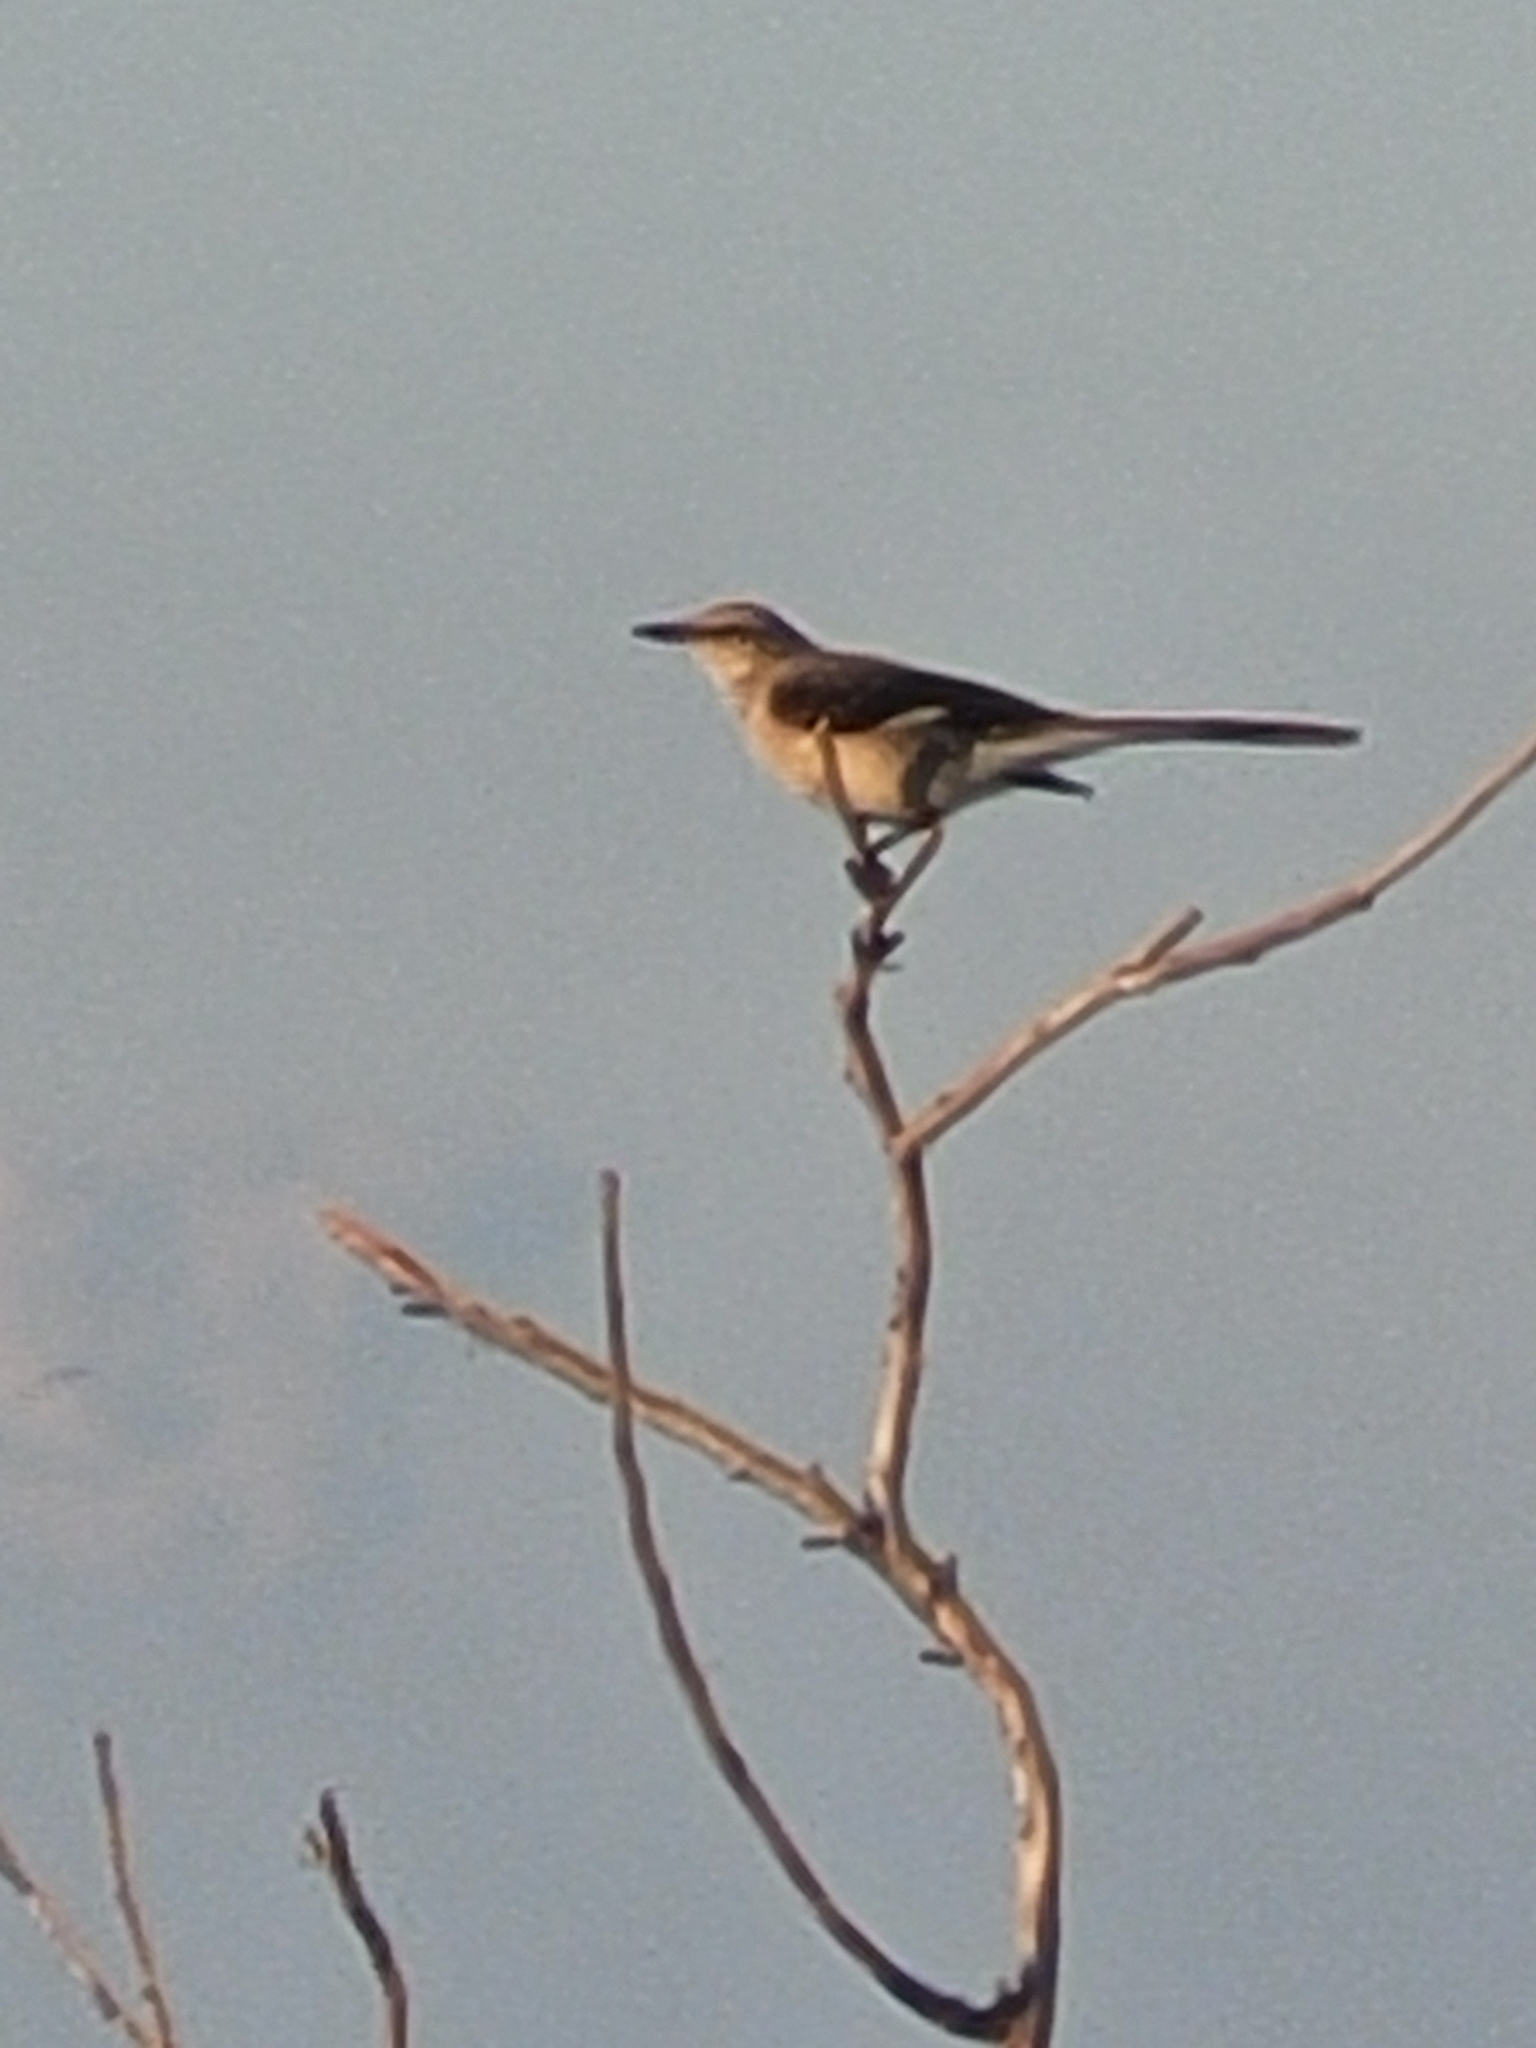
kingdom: Animalia
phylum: Chordata
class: Aves
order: Passeriformes
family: Mimidae
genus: Mimus
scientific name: Mimus polyglottos
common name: Northern mockingbird
